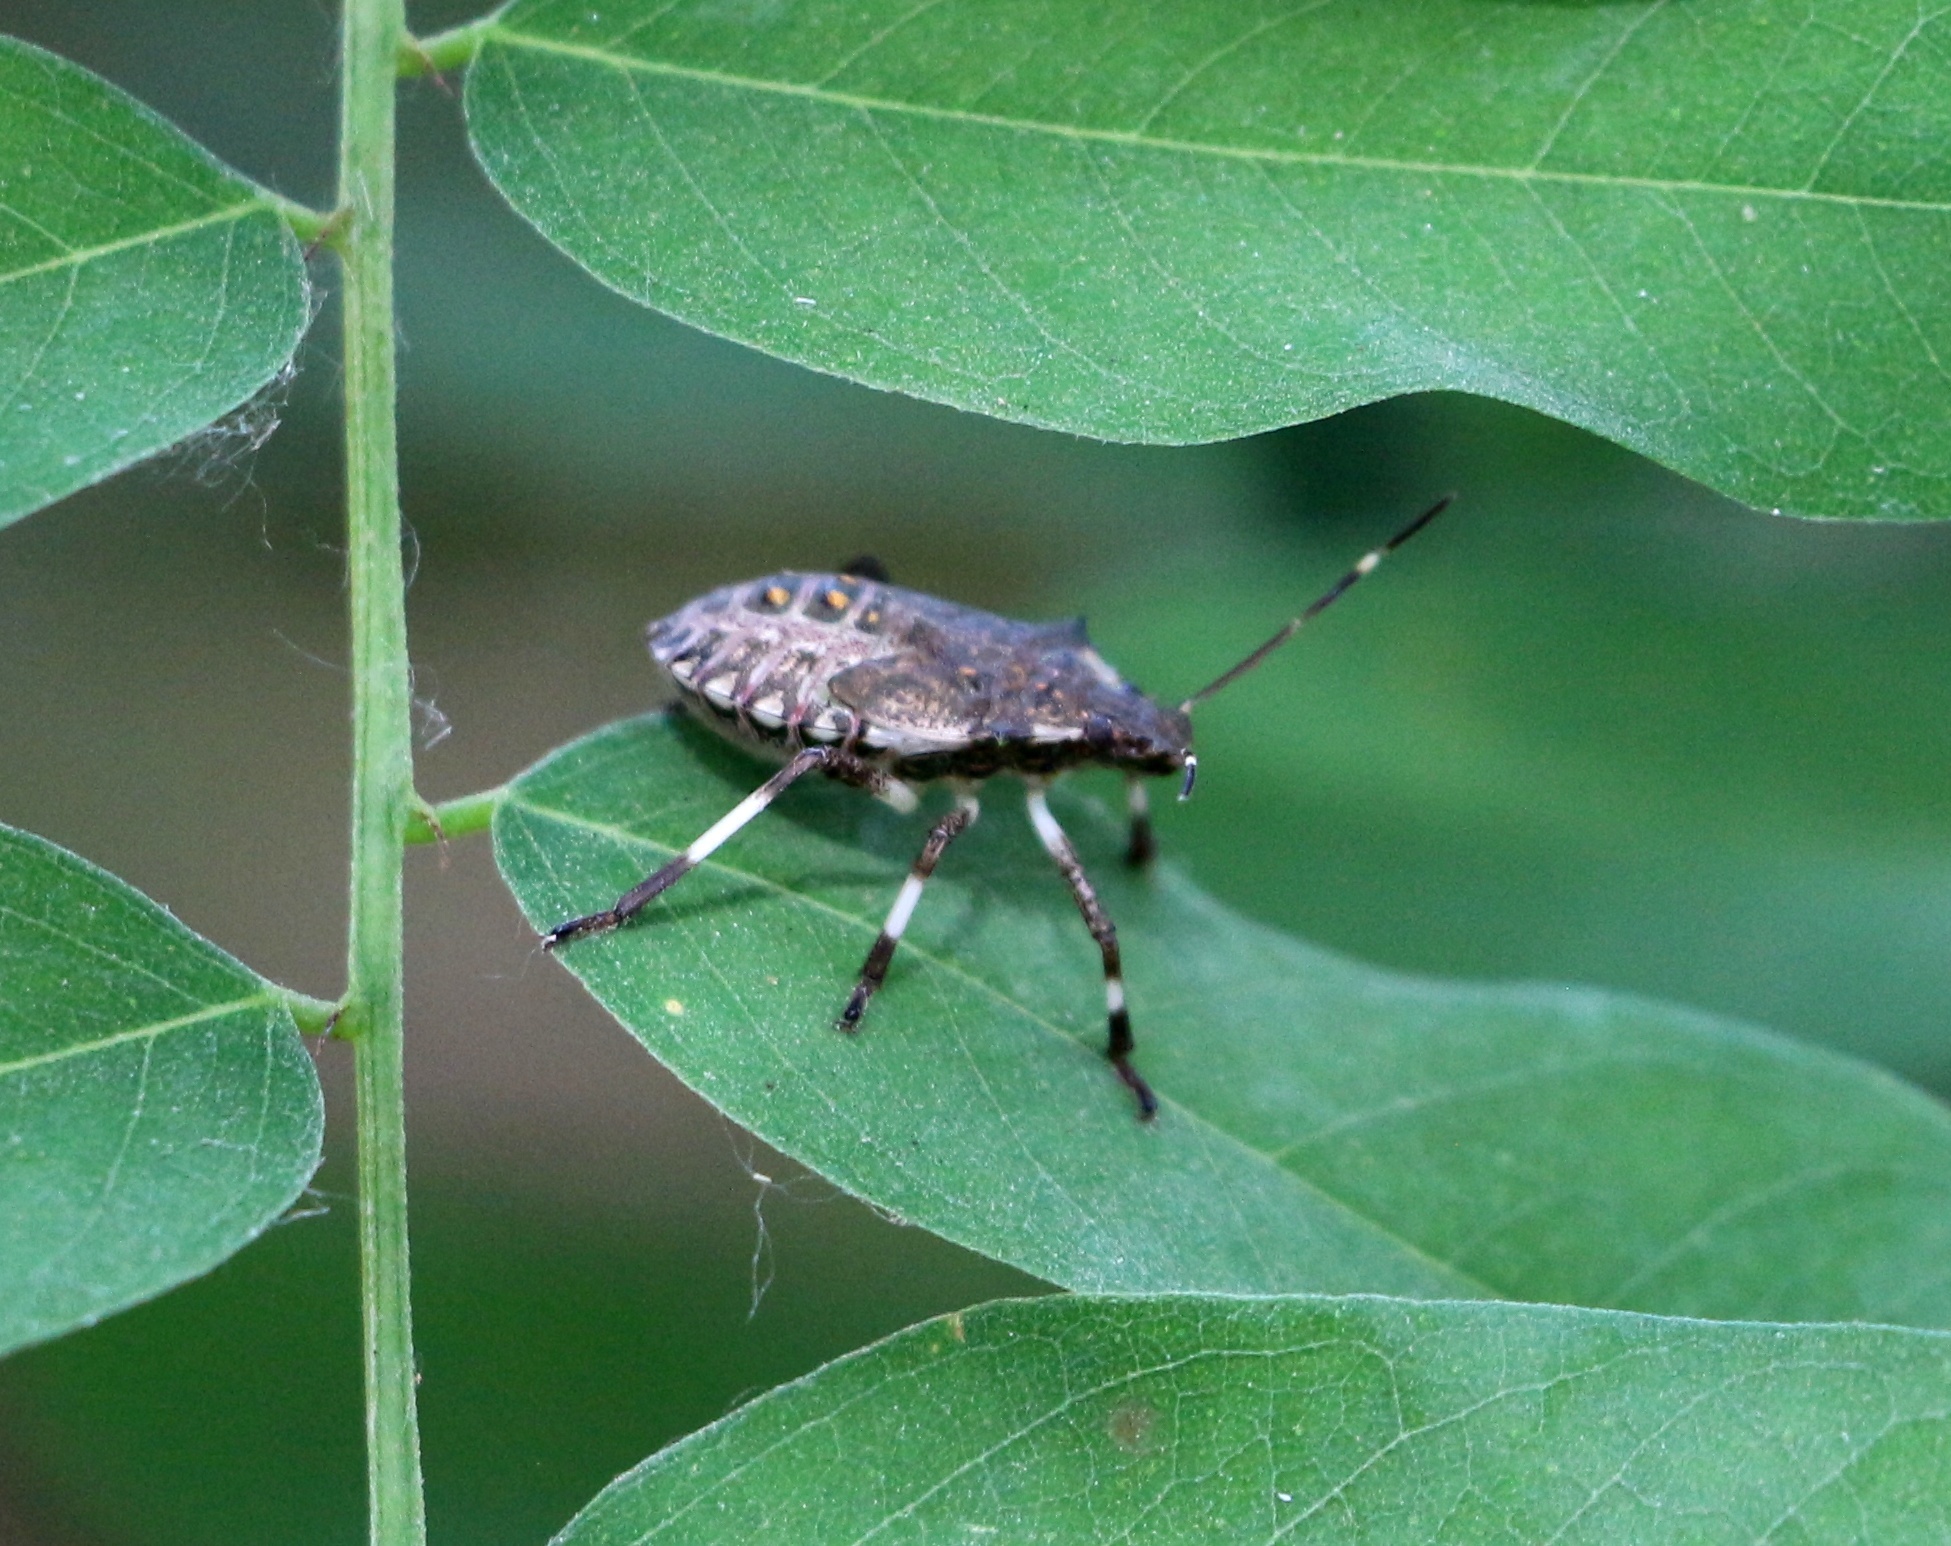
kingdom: Animalia
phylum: Arthropoda
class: Insecta
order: Hemiptera
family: Pentatomidae
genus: Halyomorpha
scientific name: Halyomorpha halys
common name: Brown marmorated stink bug
